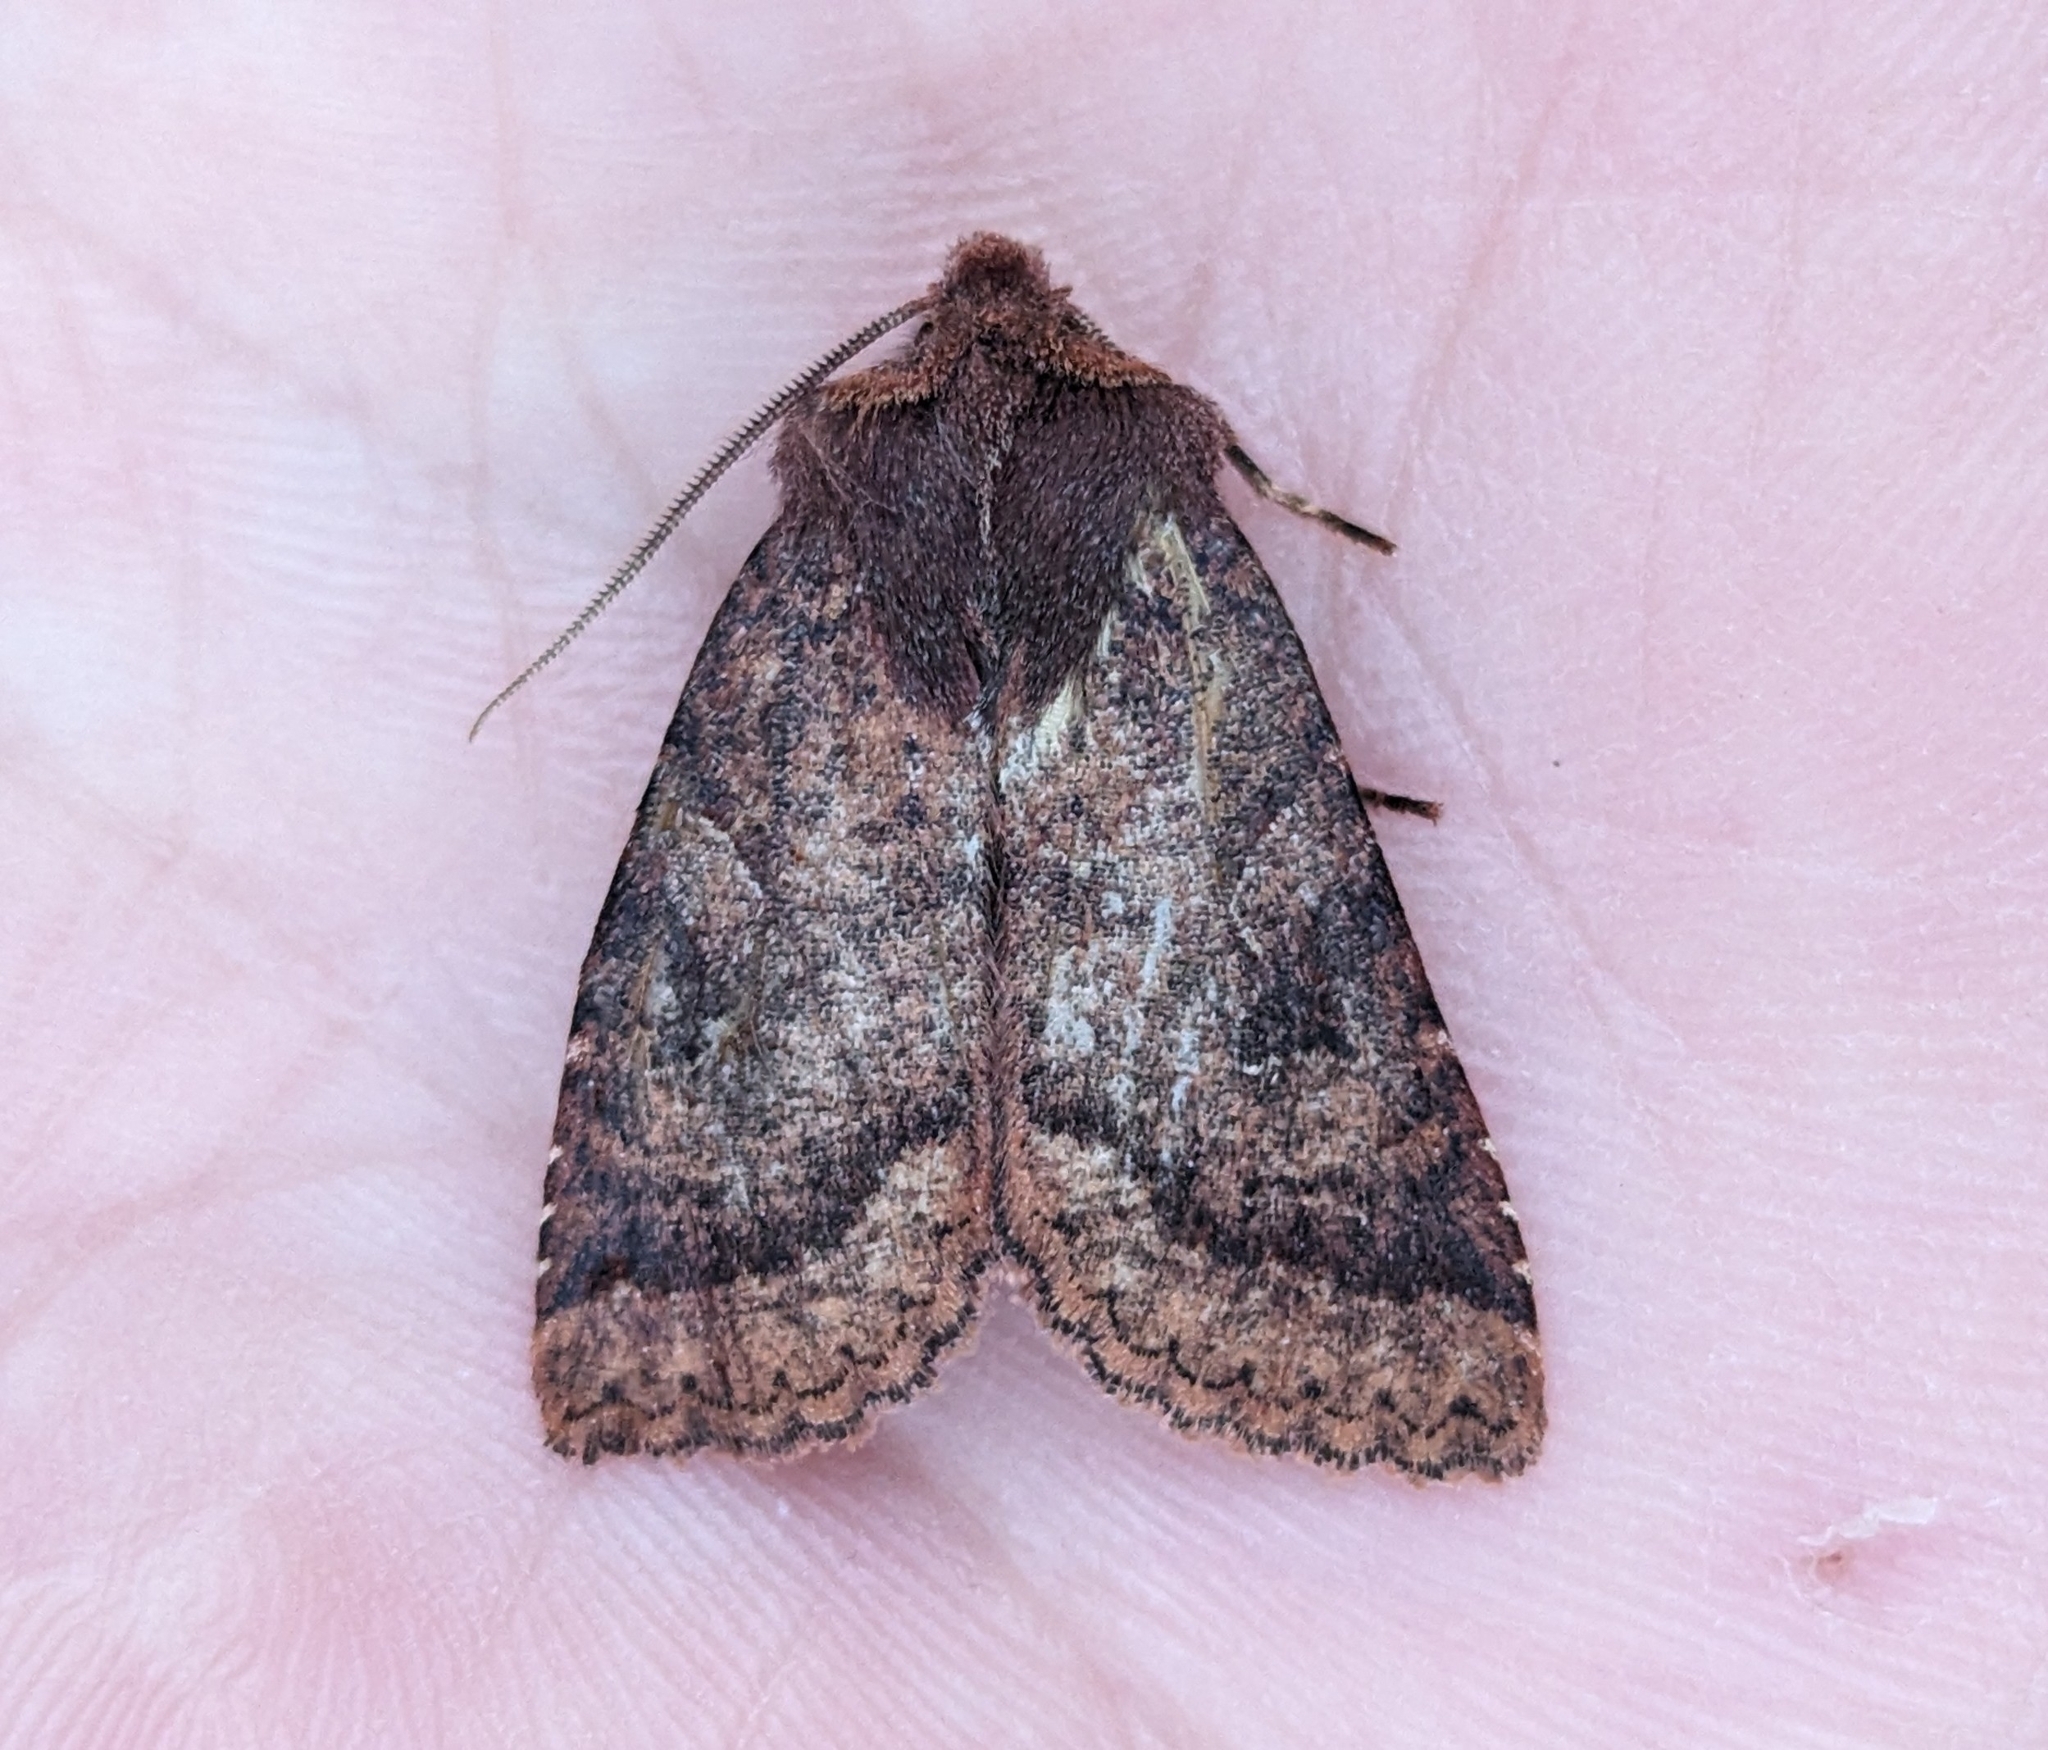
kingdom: Animalia
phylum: Arthropoda
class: Insecta
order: Lepidoptera
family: Noctuidae
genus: Orthosia
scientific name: Orthosia praeses
